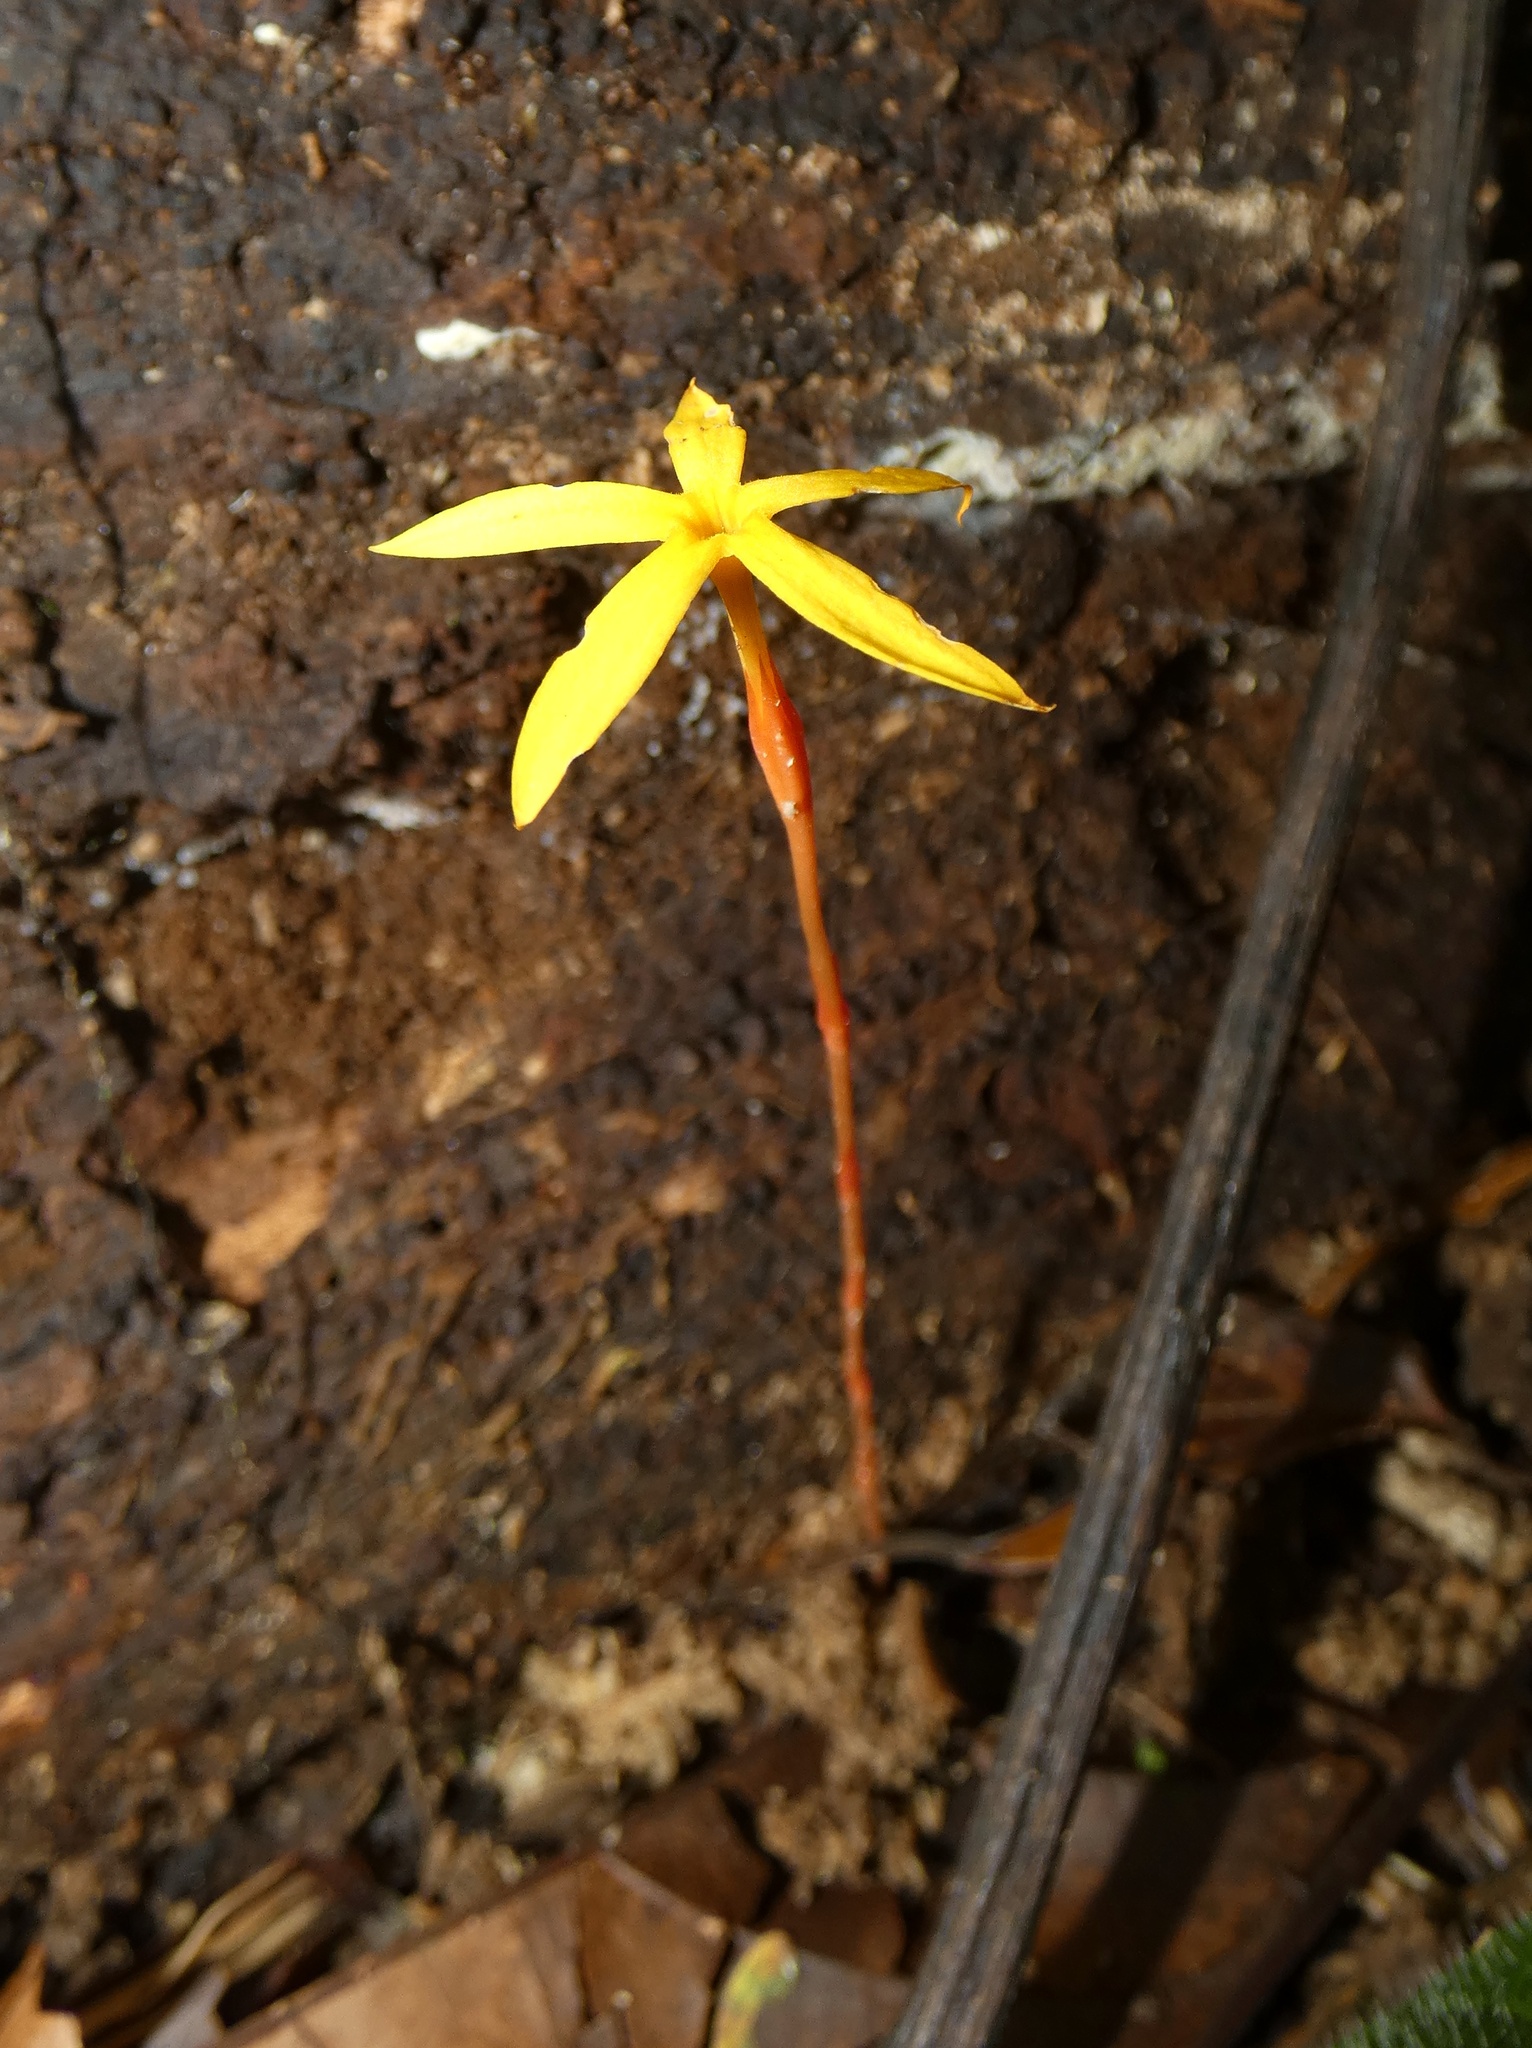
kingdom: Plantae
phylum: Tracheophyta
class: Magnoliopsida
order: Gentianales
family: Gentianaceae
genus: Voyria
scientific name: Voyria spruceana
